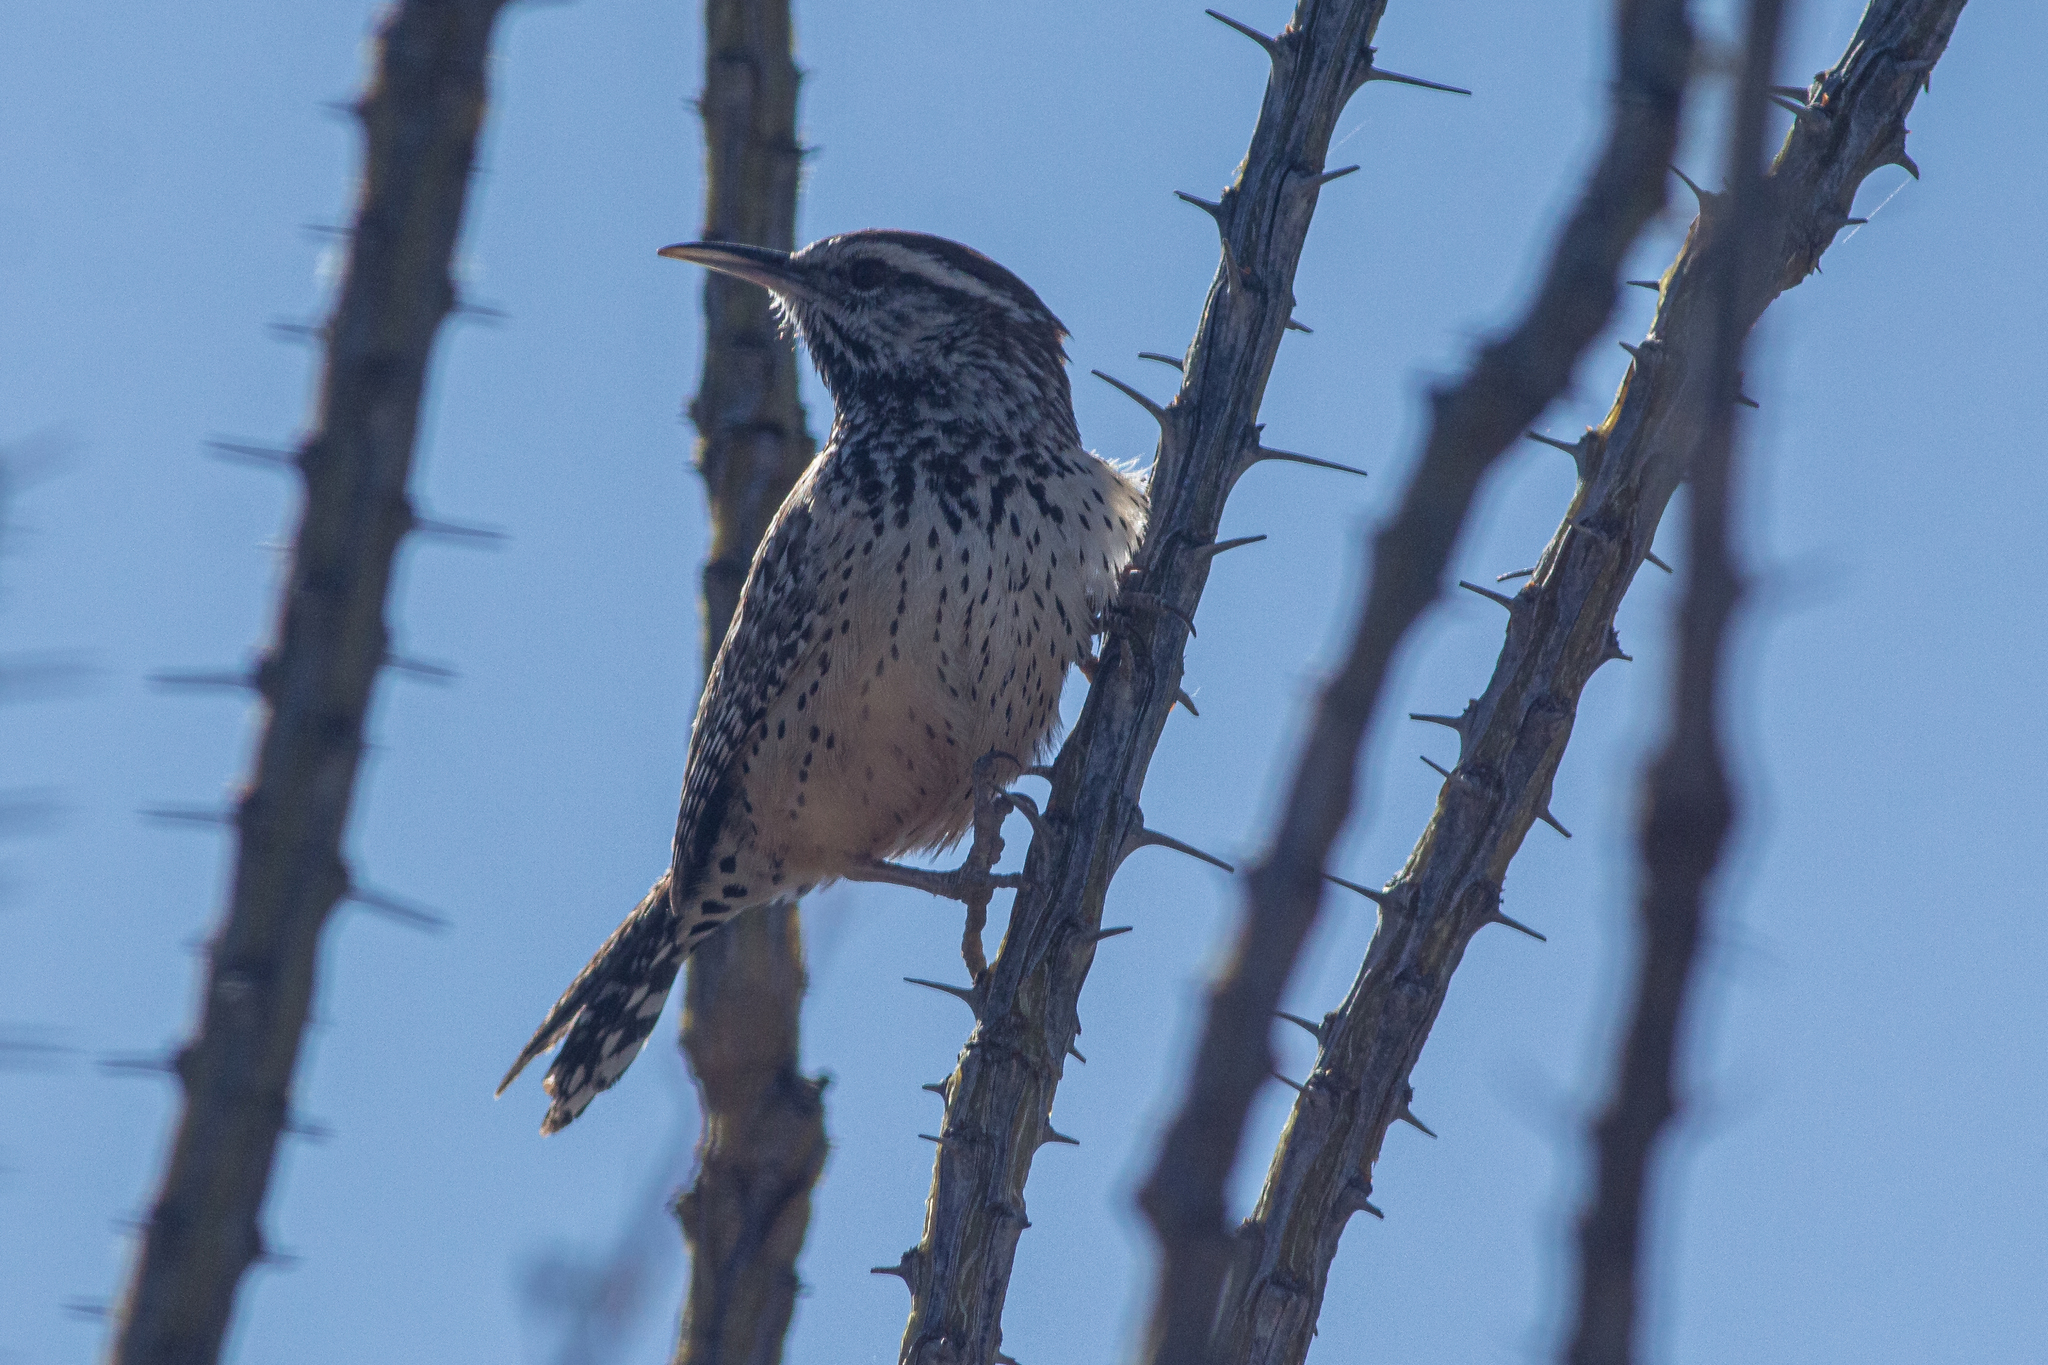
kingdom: Animalia
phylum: Chordata
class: Aves
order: Passeriformes
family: Troglodytidae
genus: Campylorhynchus
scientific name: Campylorhynchus brunneicapillus
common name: Cactus wren
